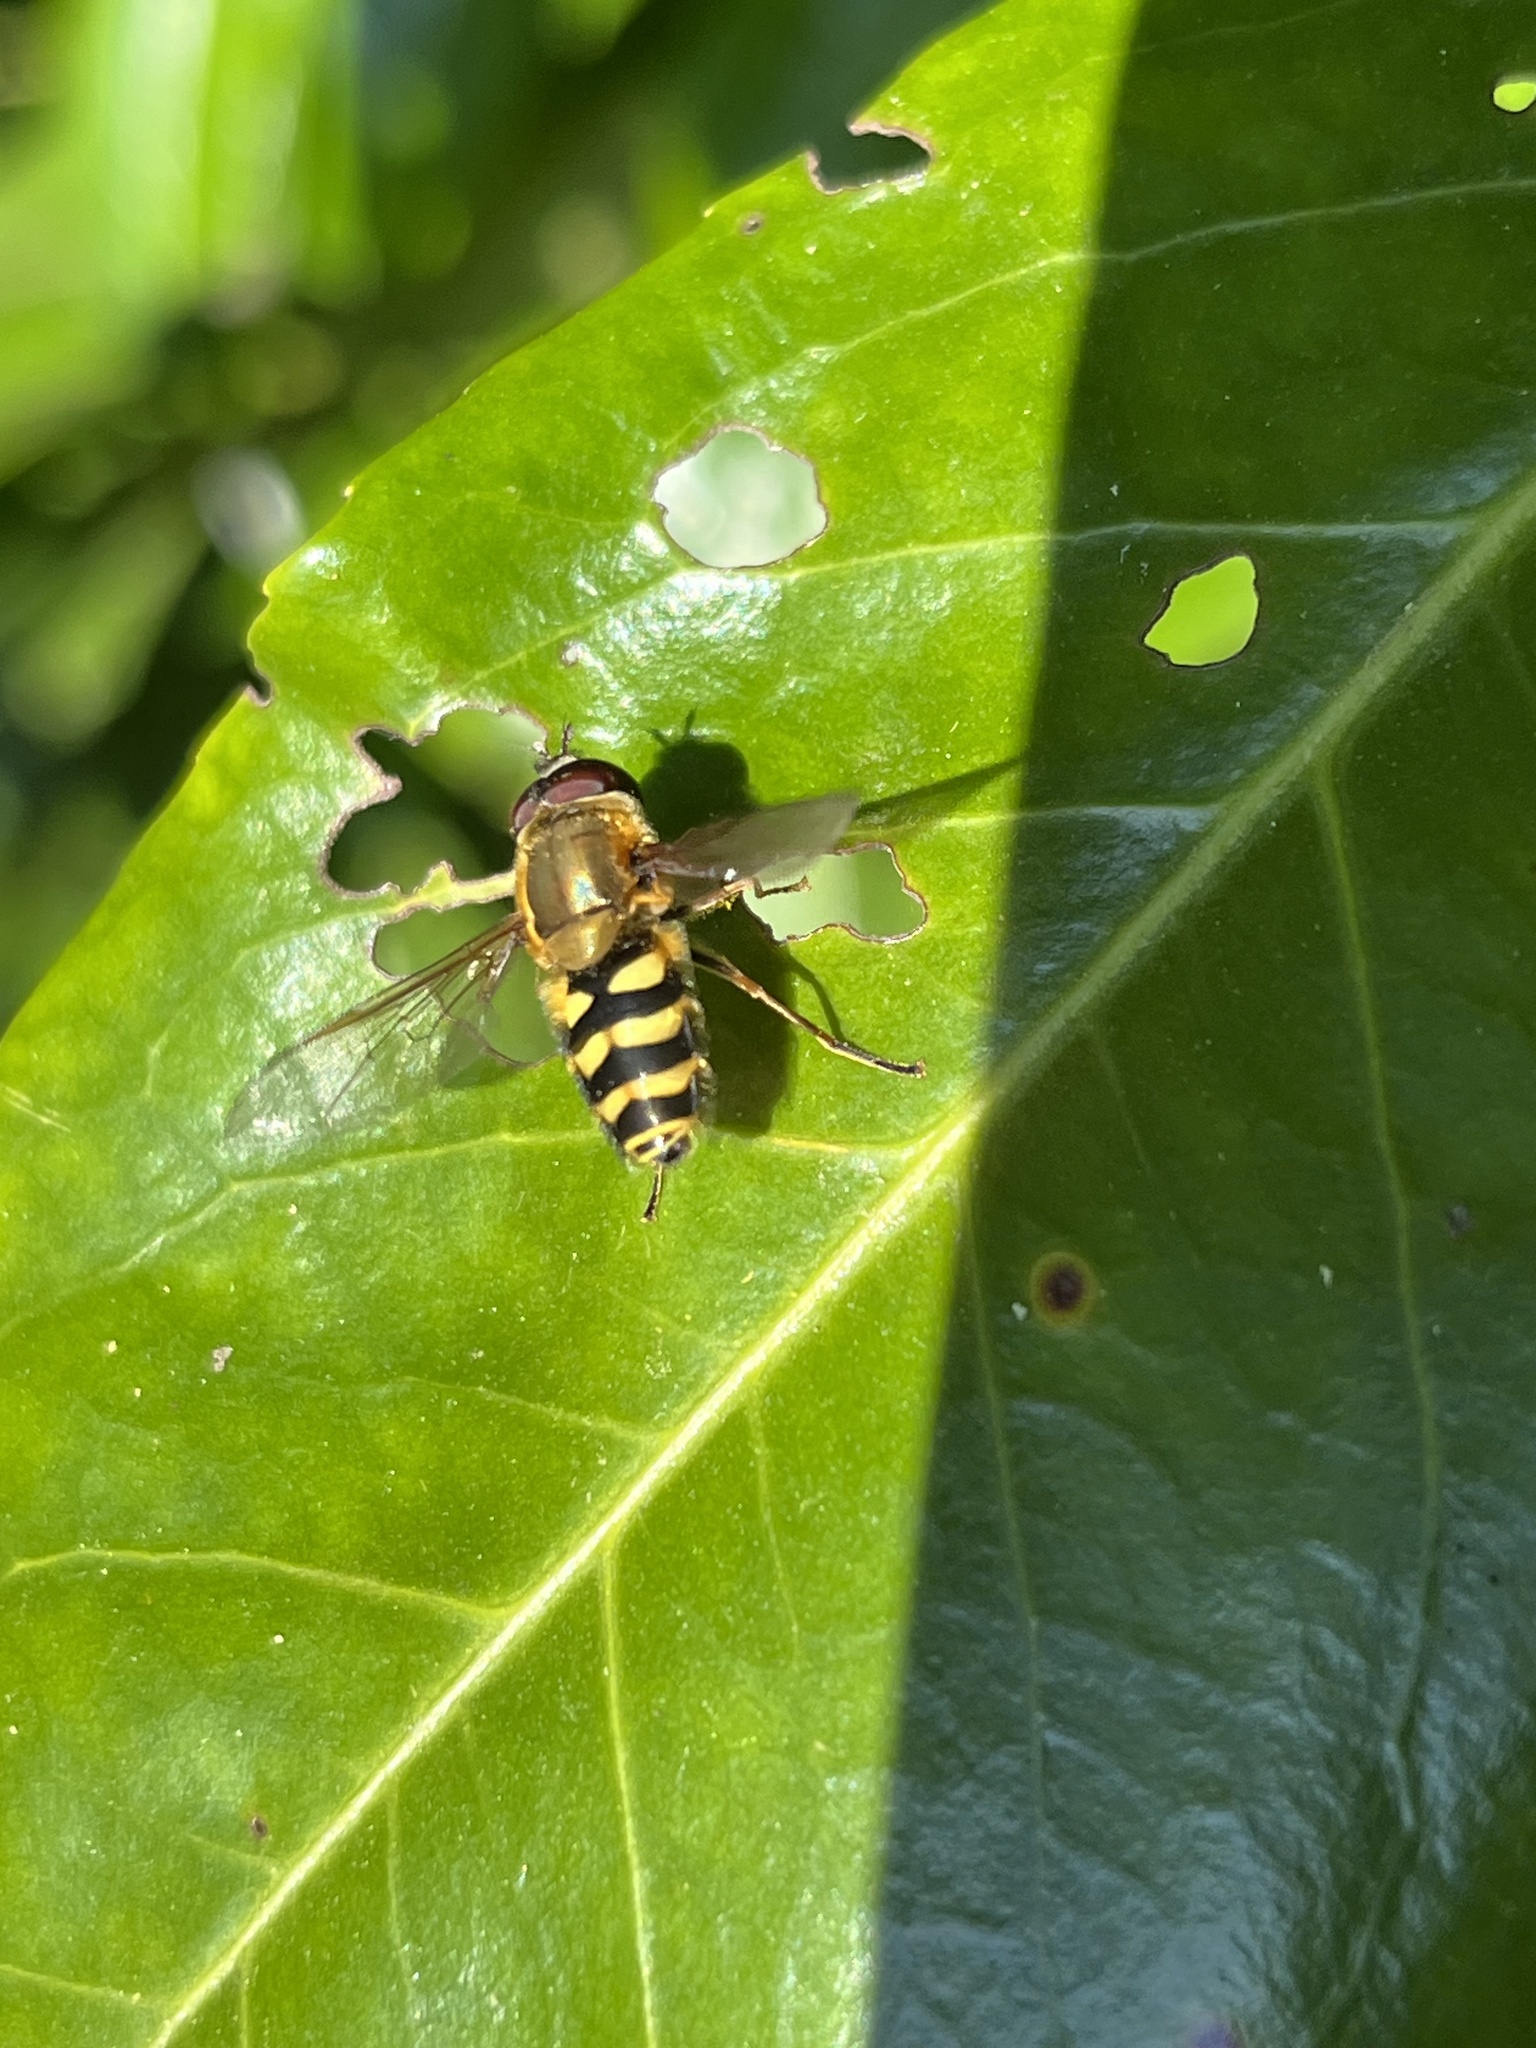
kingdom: Animalia
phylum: Arthropoda
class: Insecta
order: Diptera
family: Syrphidae
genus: Syrphus
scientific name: Syrphus
